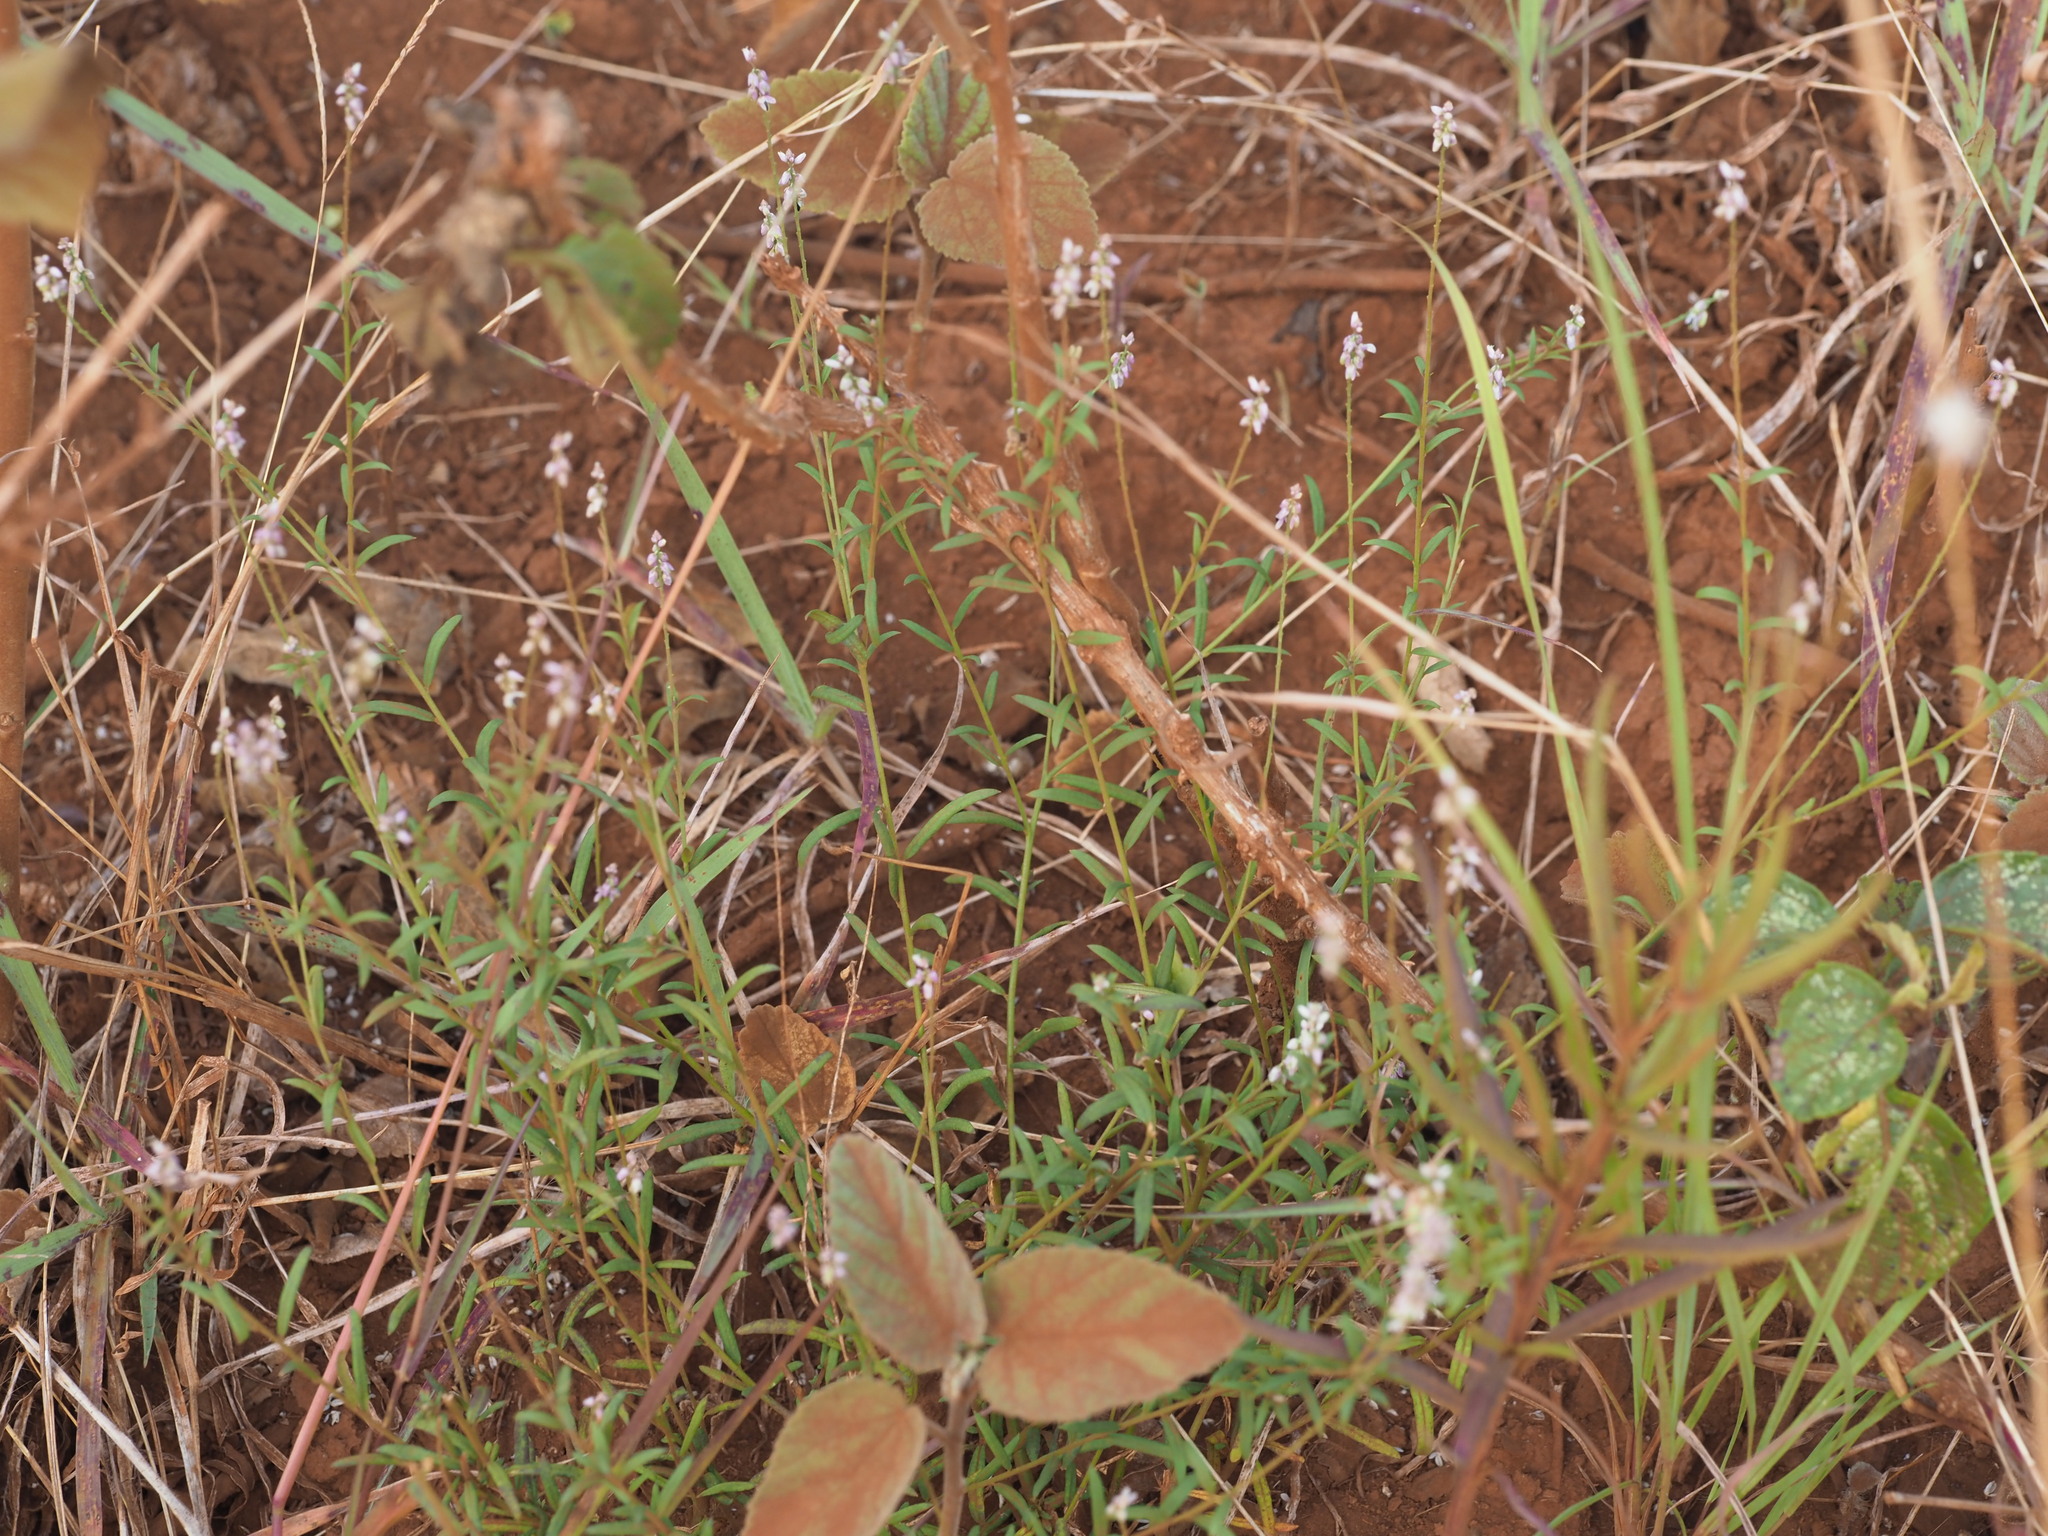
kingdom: Plantae
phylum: Tracheophyta
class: Magnoliopsida
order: Fabales
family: Polygalaceae
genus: Polygala
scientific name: Polygala paniculata
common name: Orosne
